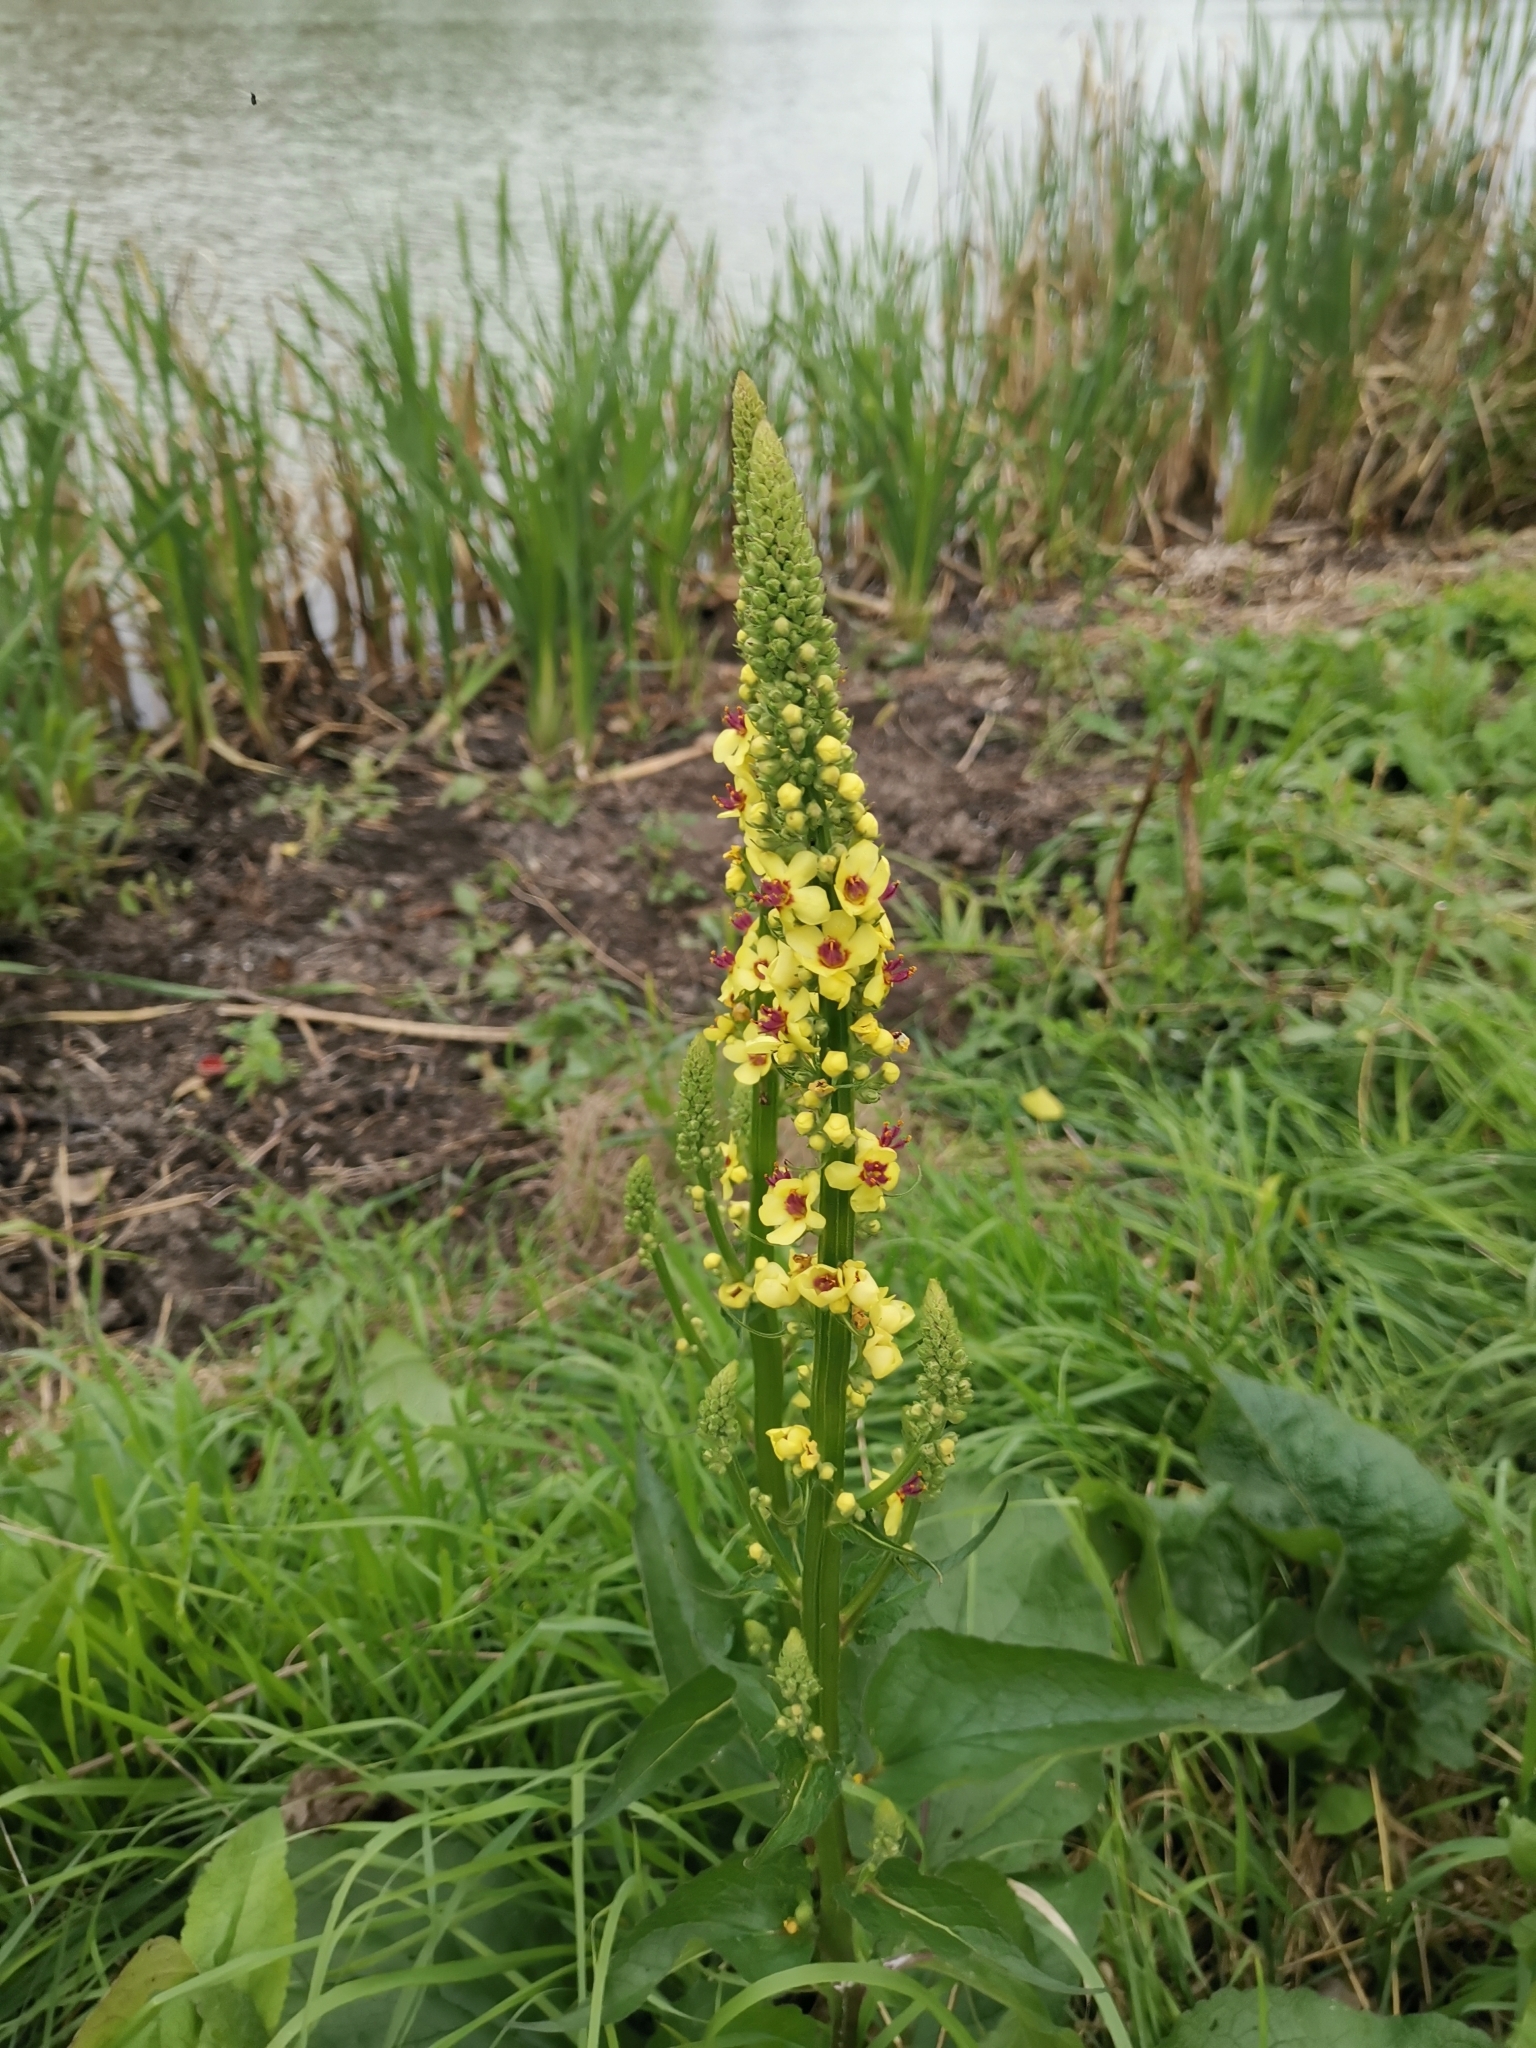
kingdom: Plantae
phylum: Tracheophyta
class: Magnoliopsida
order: Lamiales
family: Scrophulariaceae
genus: Verbascum
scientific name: Verbascum nigrum
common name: Dark mullein
